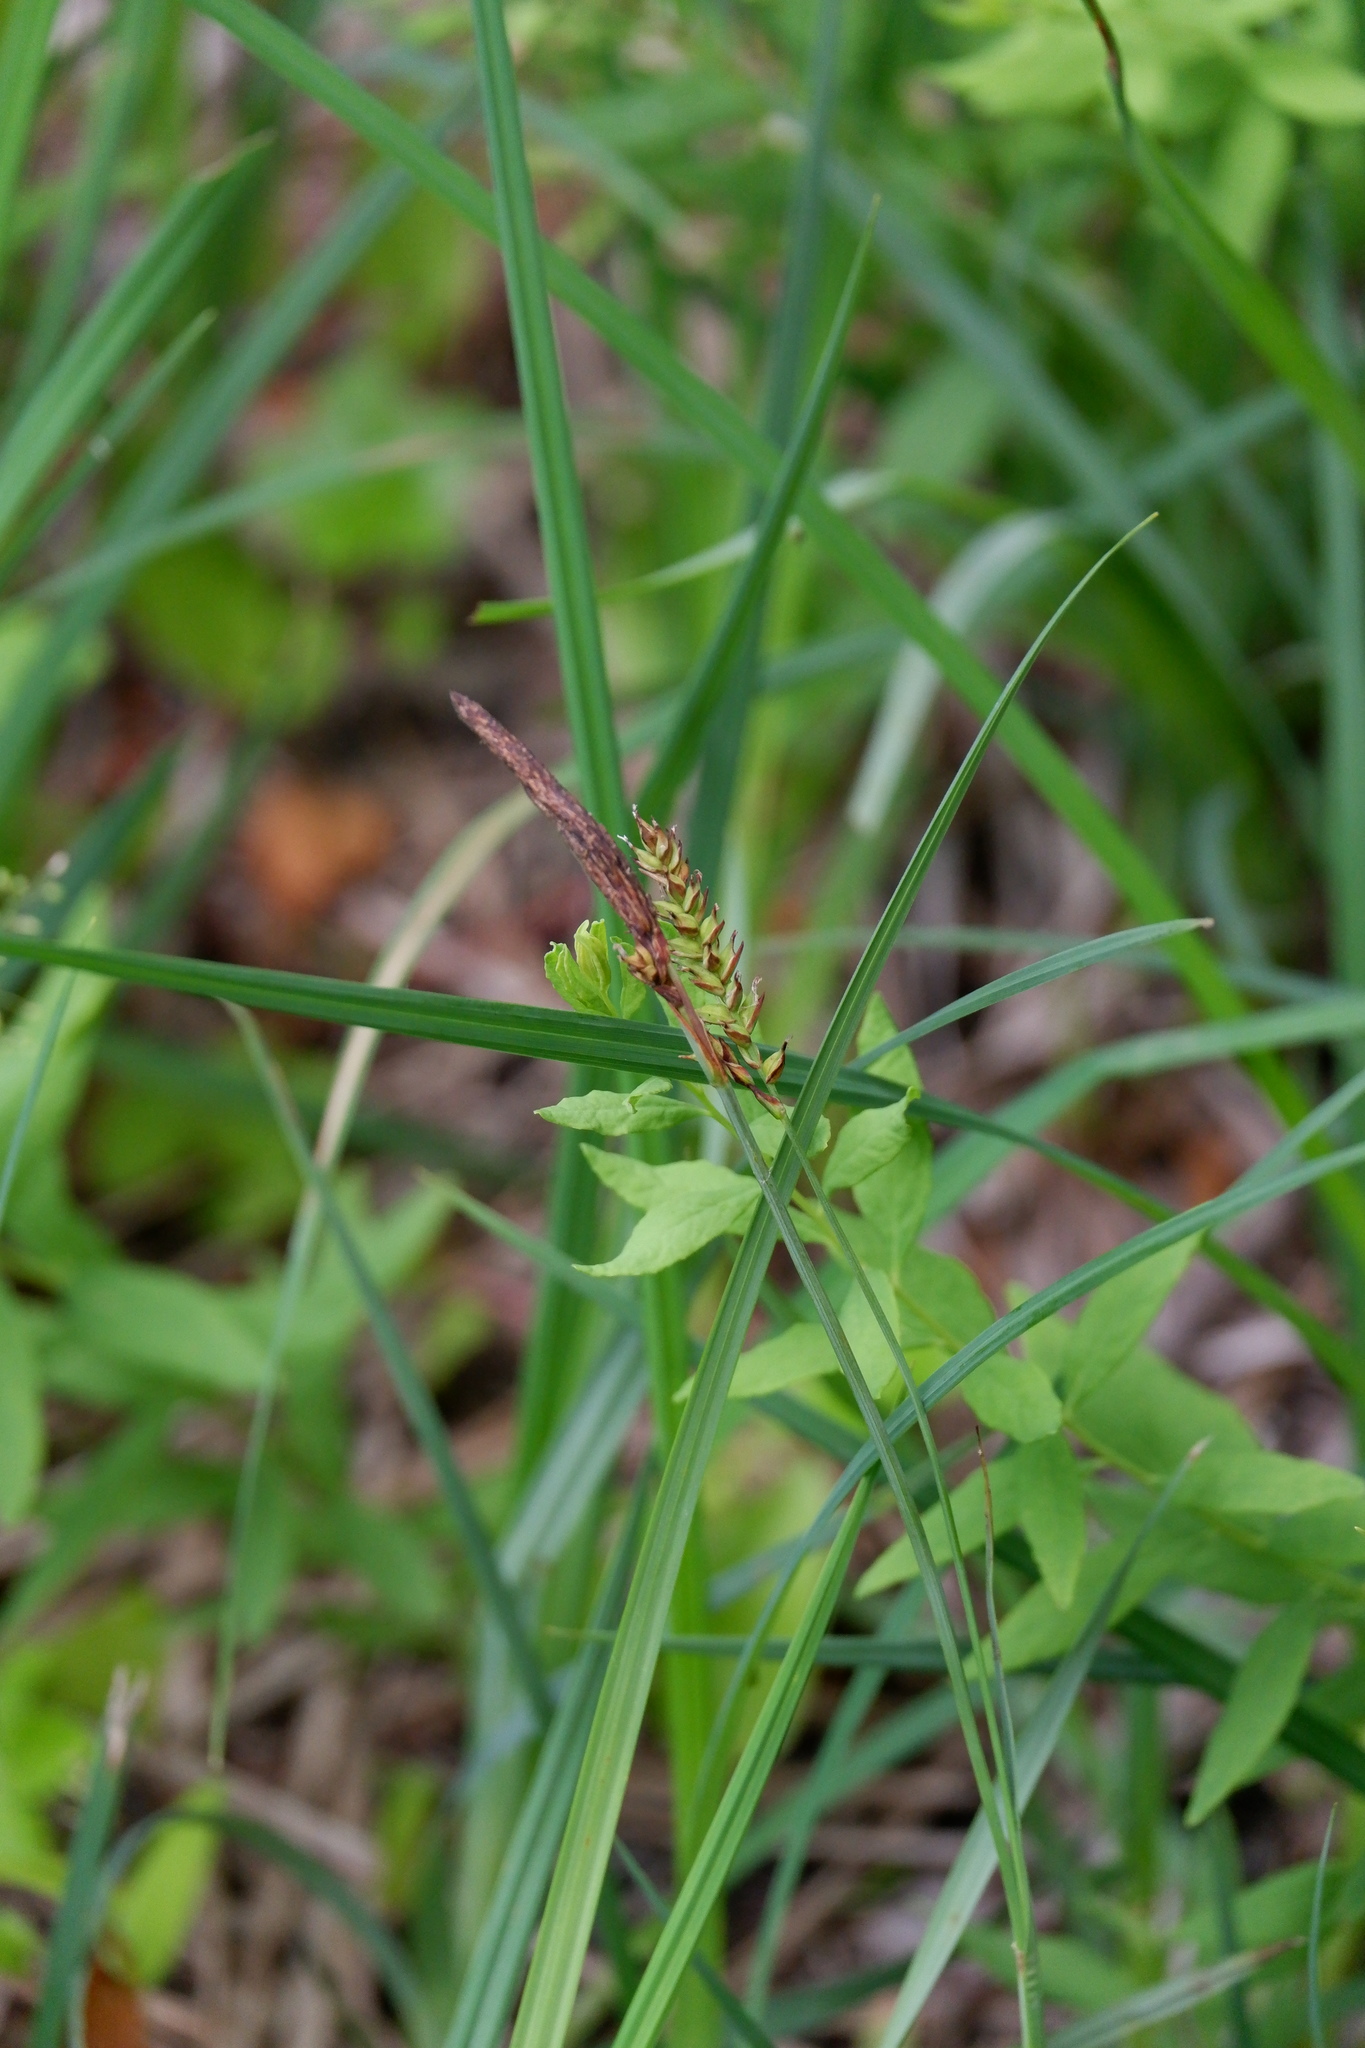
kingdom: Plantae
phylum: Tracheophyta
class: Liliopsida
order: Poales
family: Cyperaceae
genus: Carex
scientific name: Carex polymorpha
